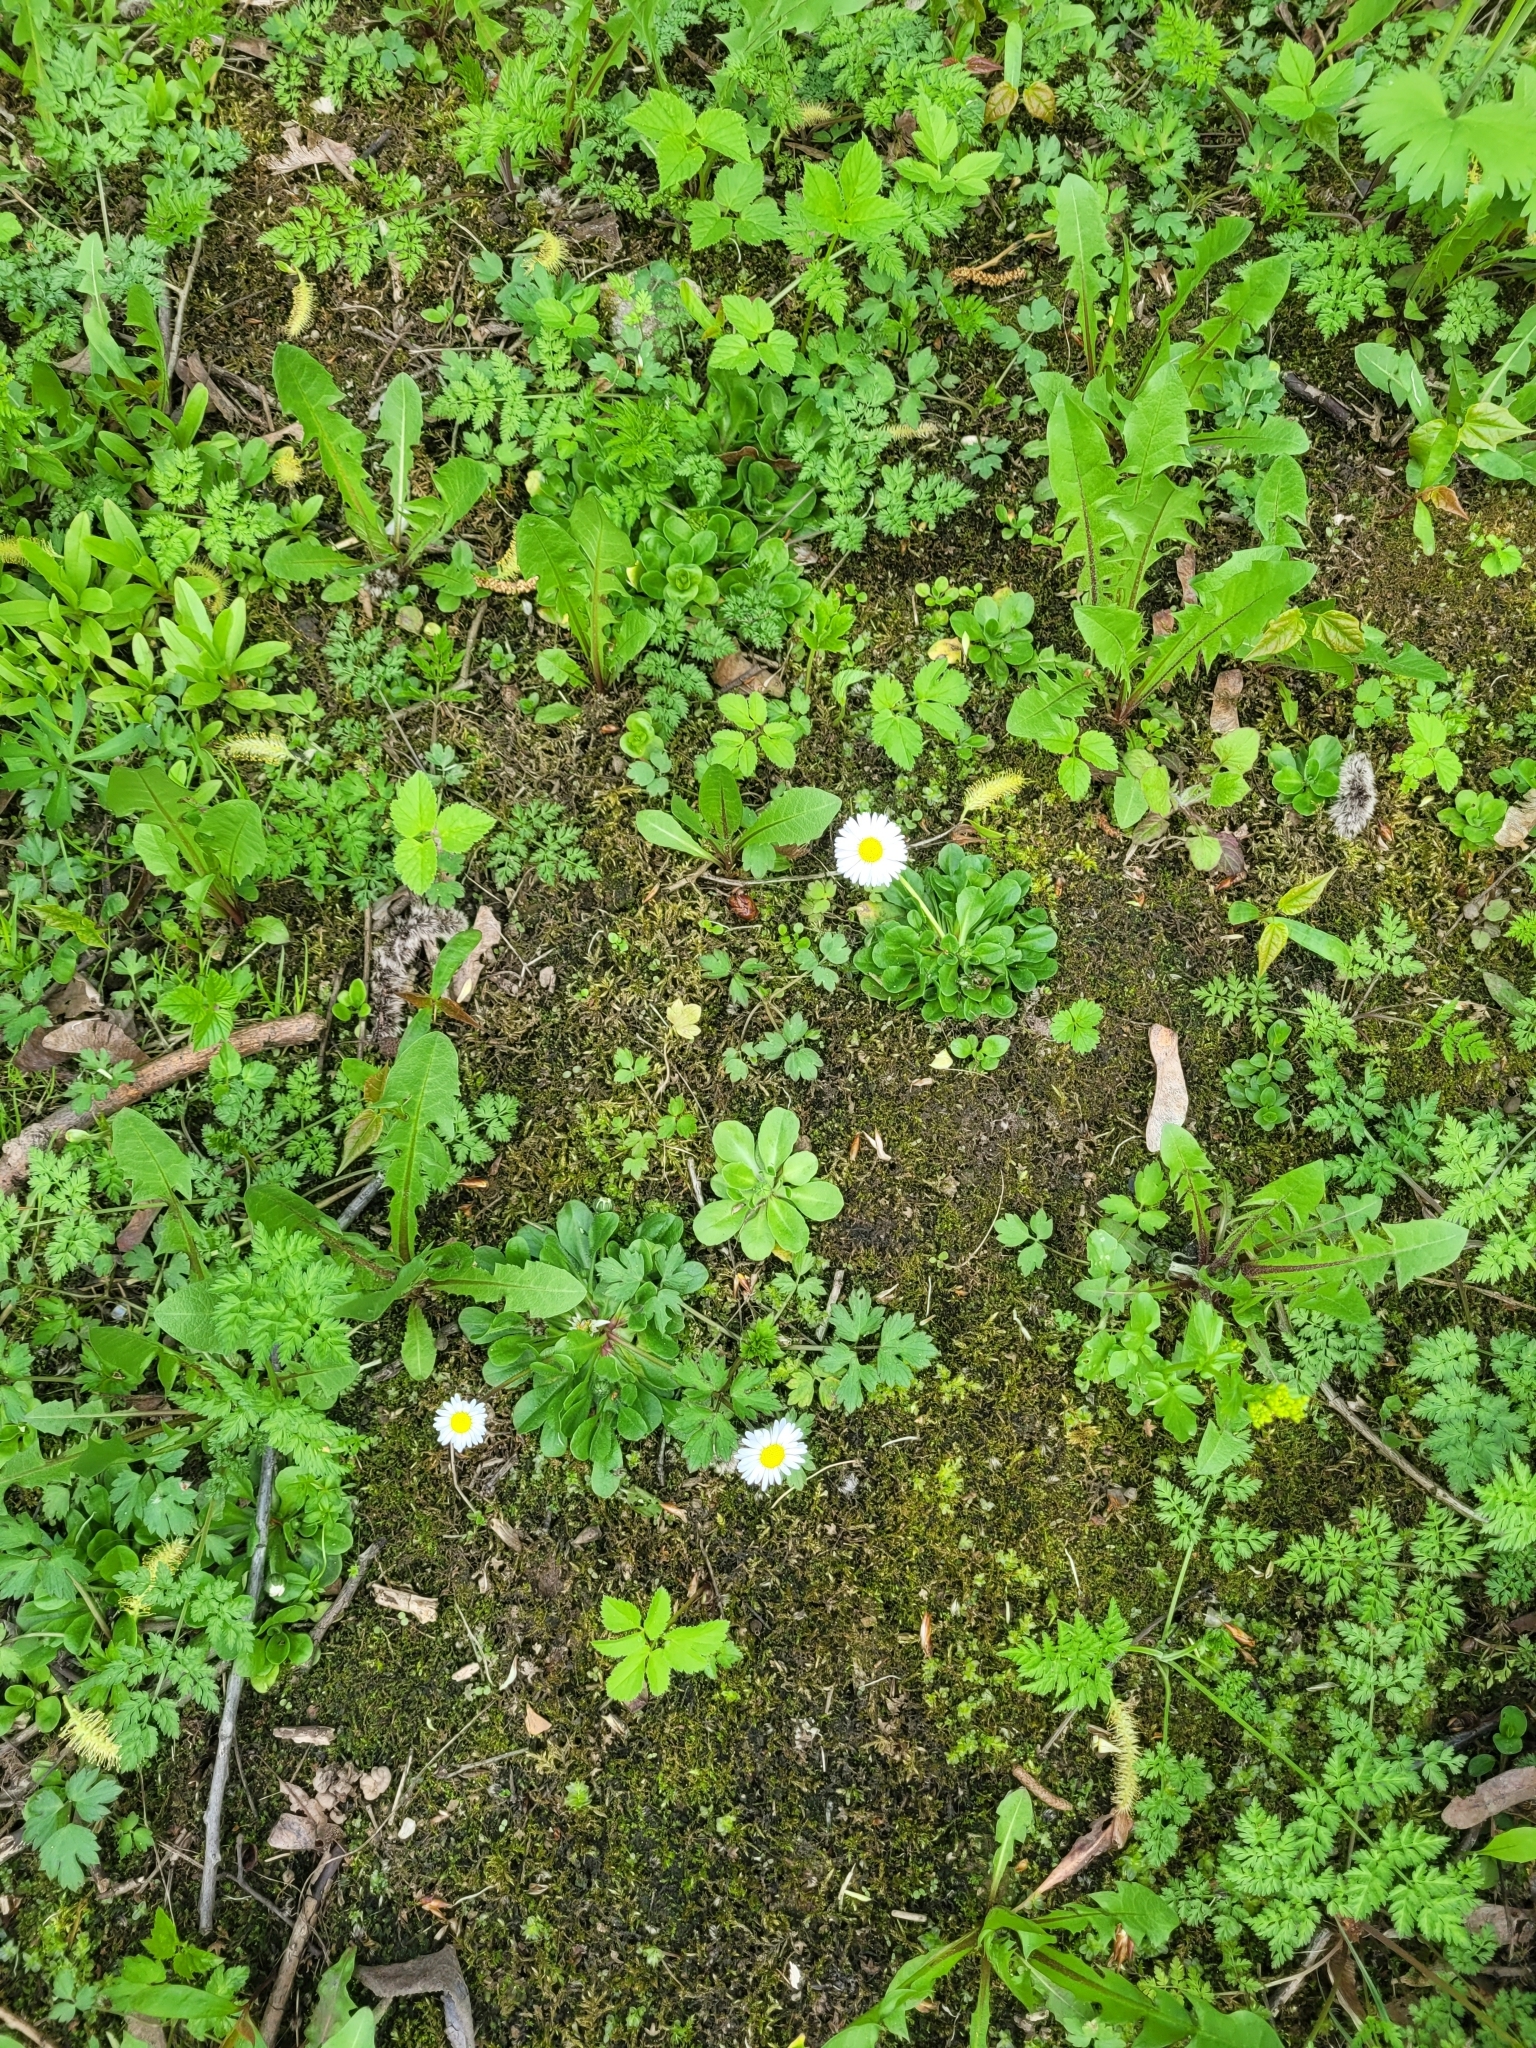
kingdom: Plantae
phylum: Tracheophyta
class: Magnoliopsida
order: Asterales
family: Asteraceae
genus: Bellis
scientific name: Bellis perennis
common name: Lawndaisy
